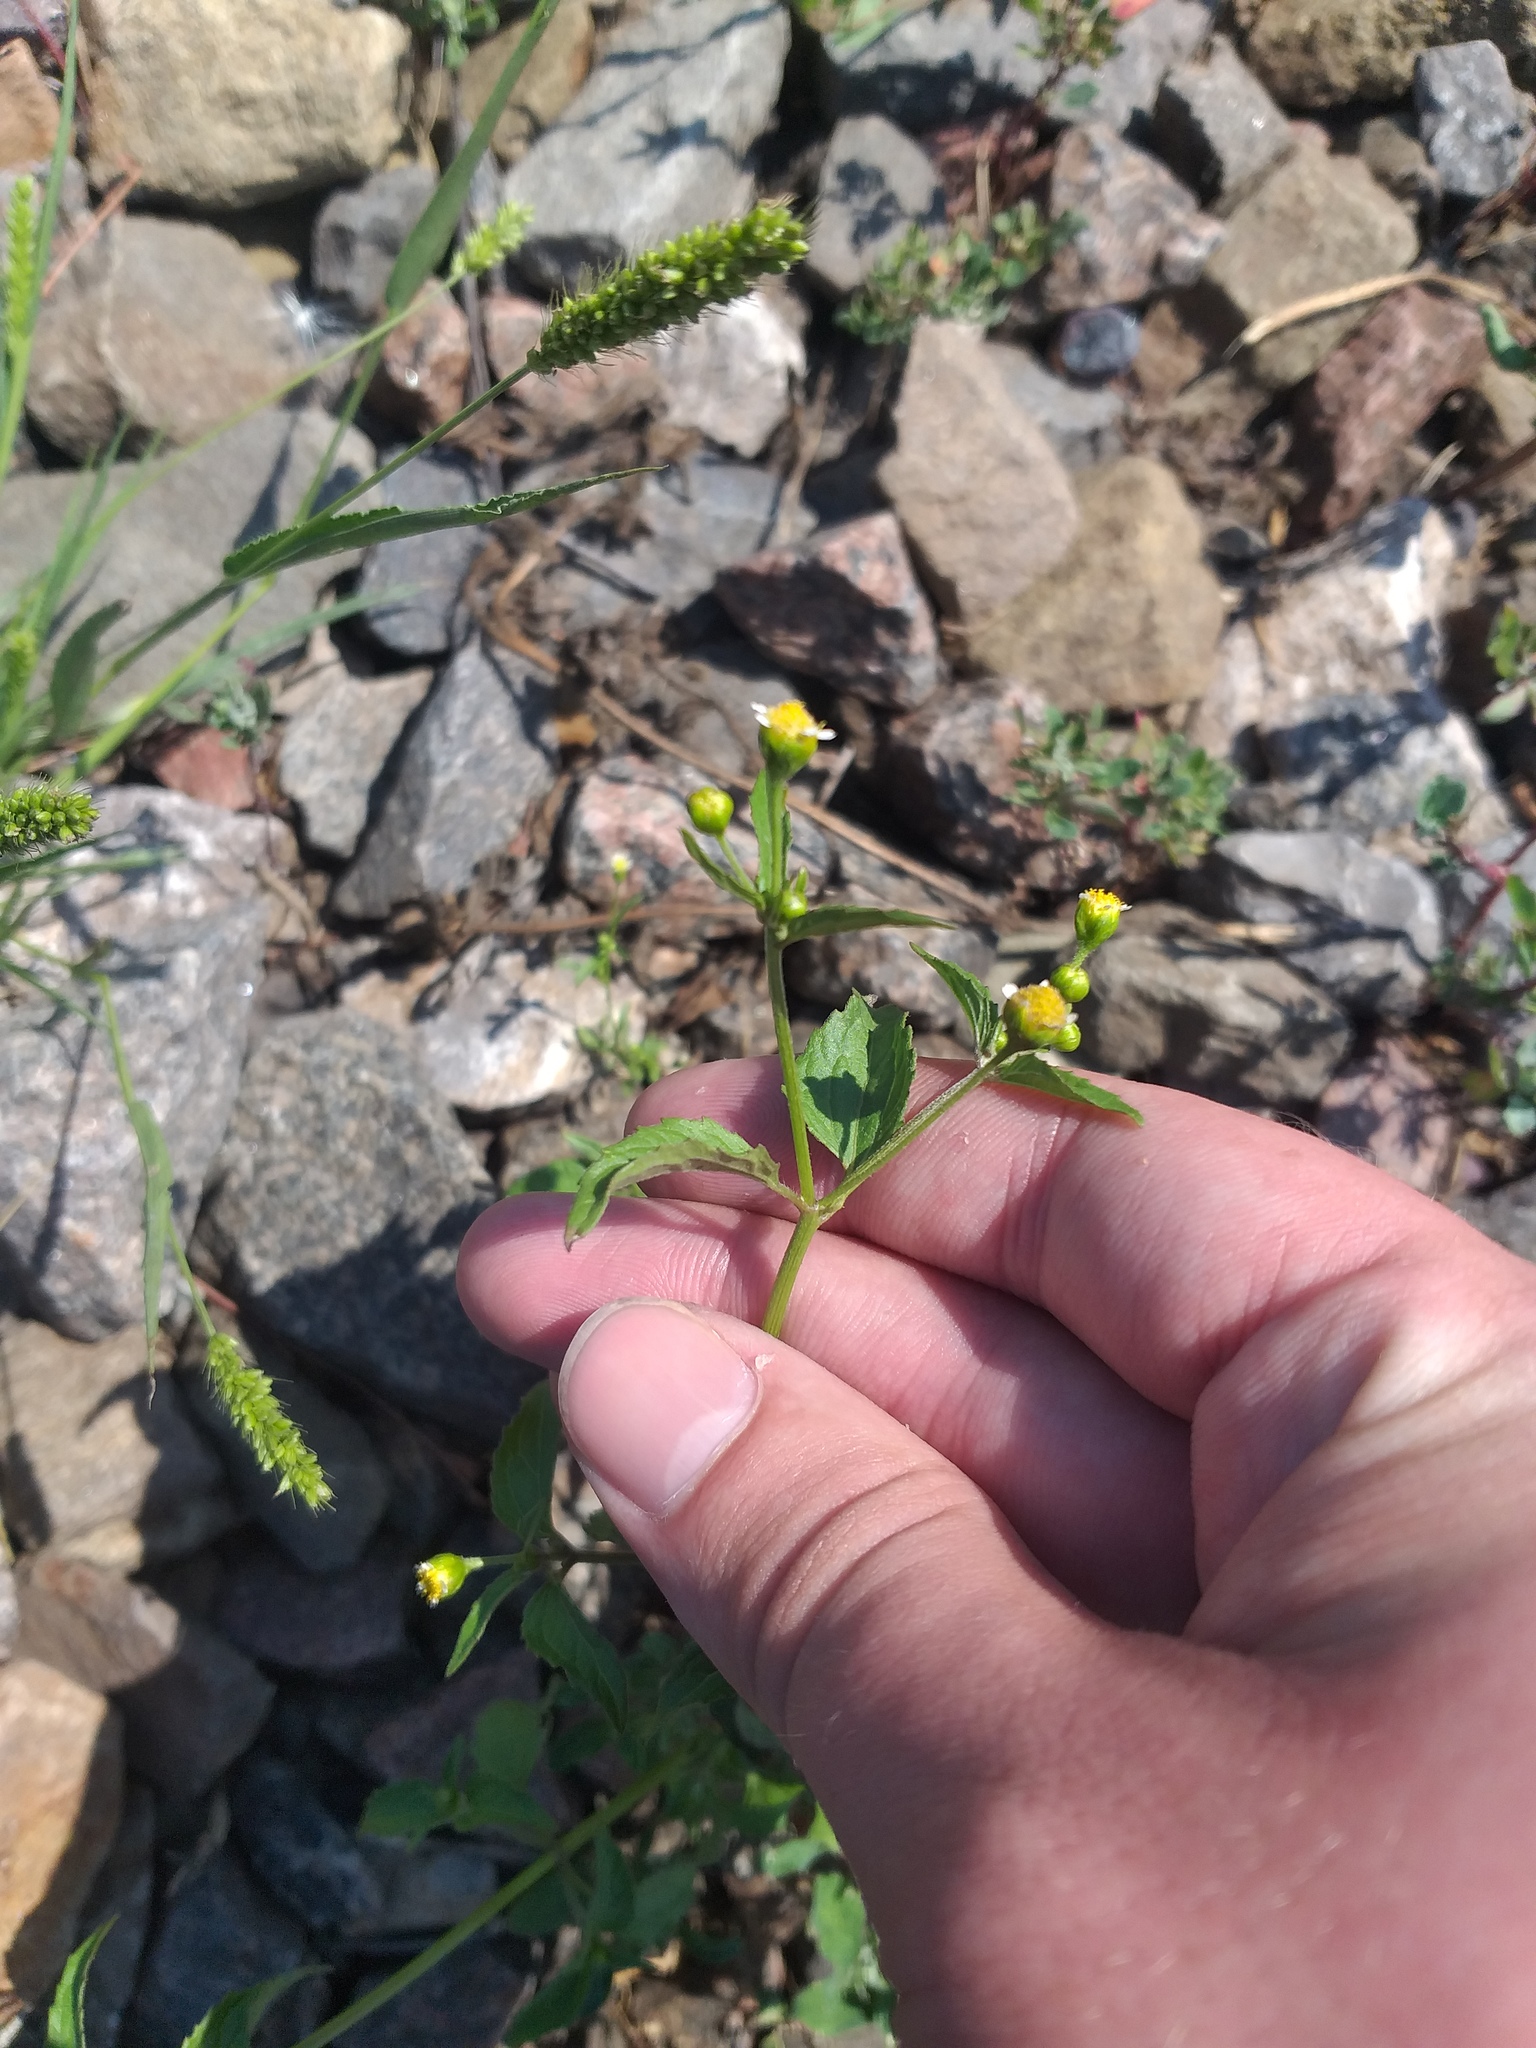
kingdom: Plantae
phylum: Tracheophyta
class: Magnoliopsida
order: Asterales
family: Asteraceae
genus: Galinsoga
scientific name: Galinsoga parviflora
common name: Gallant soldier
